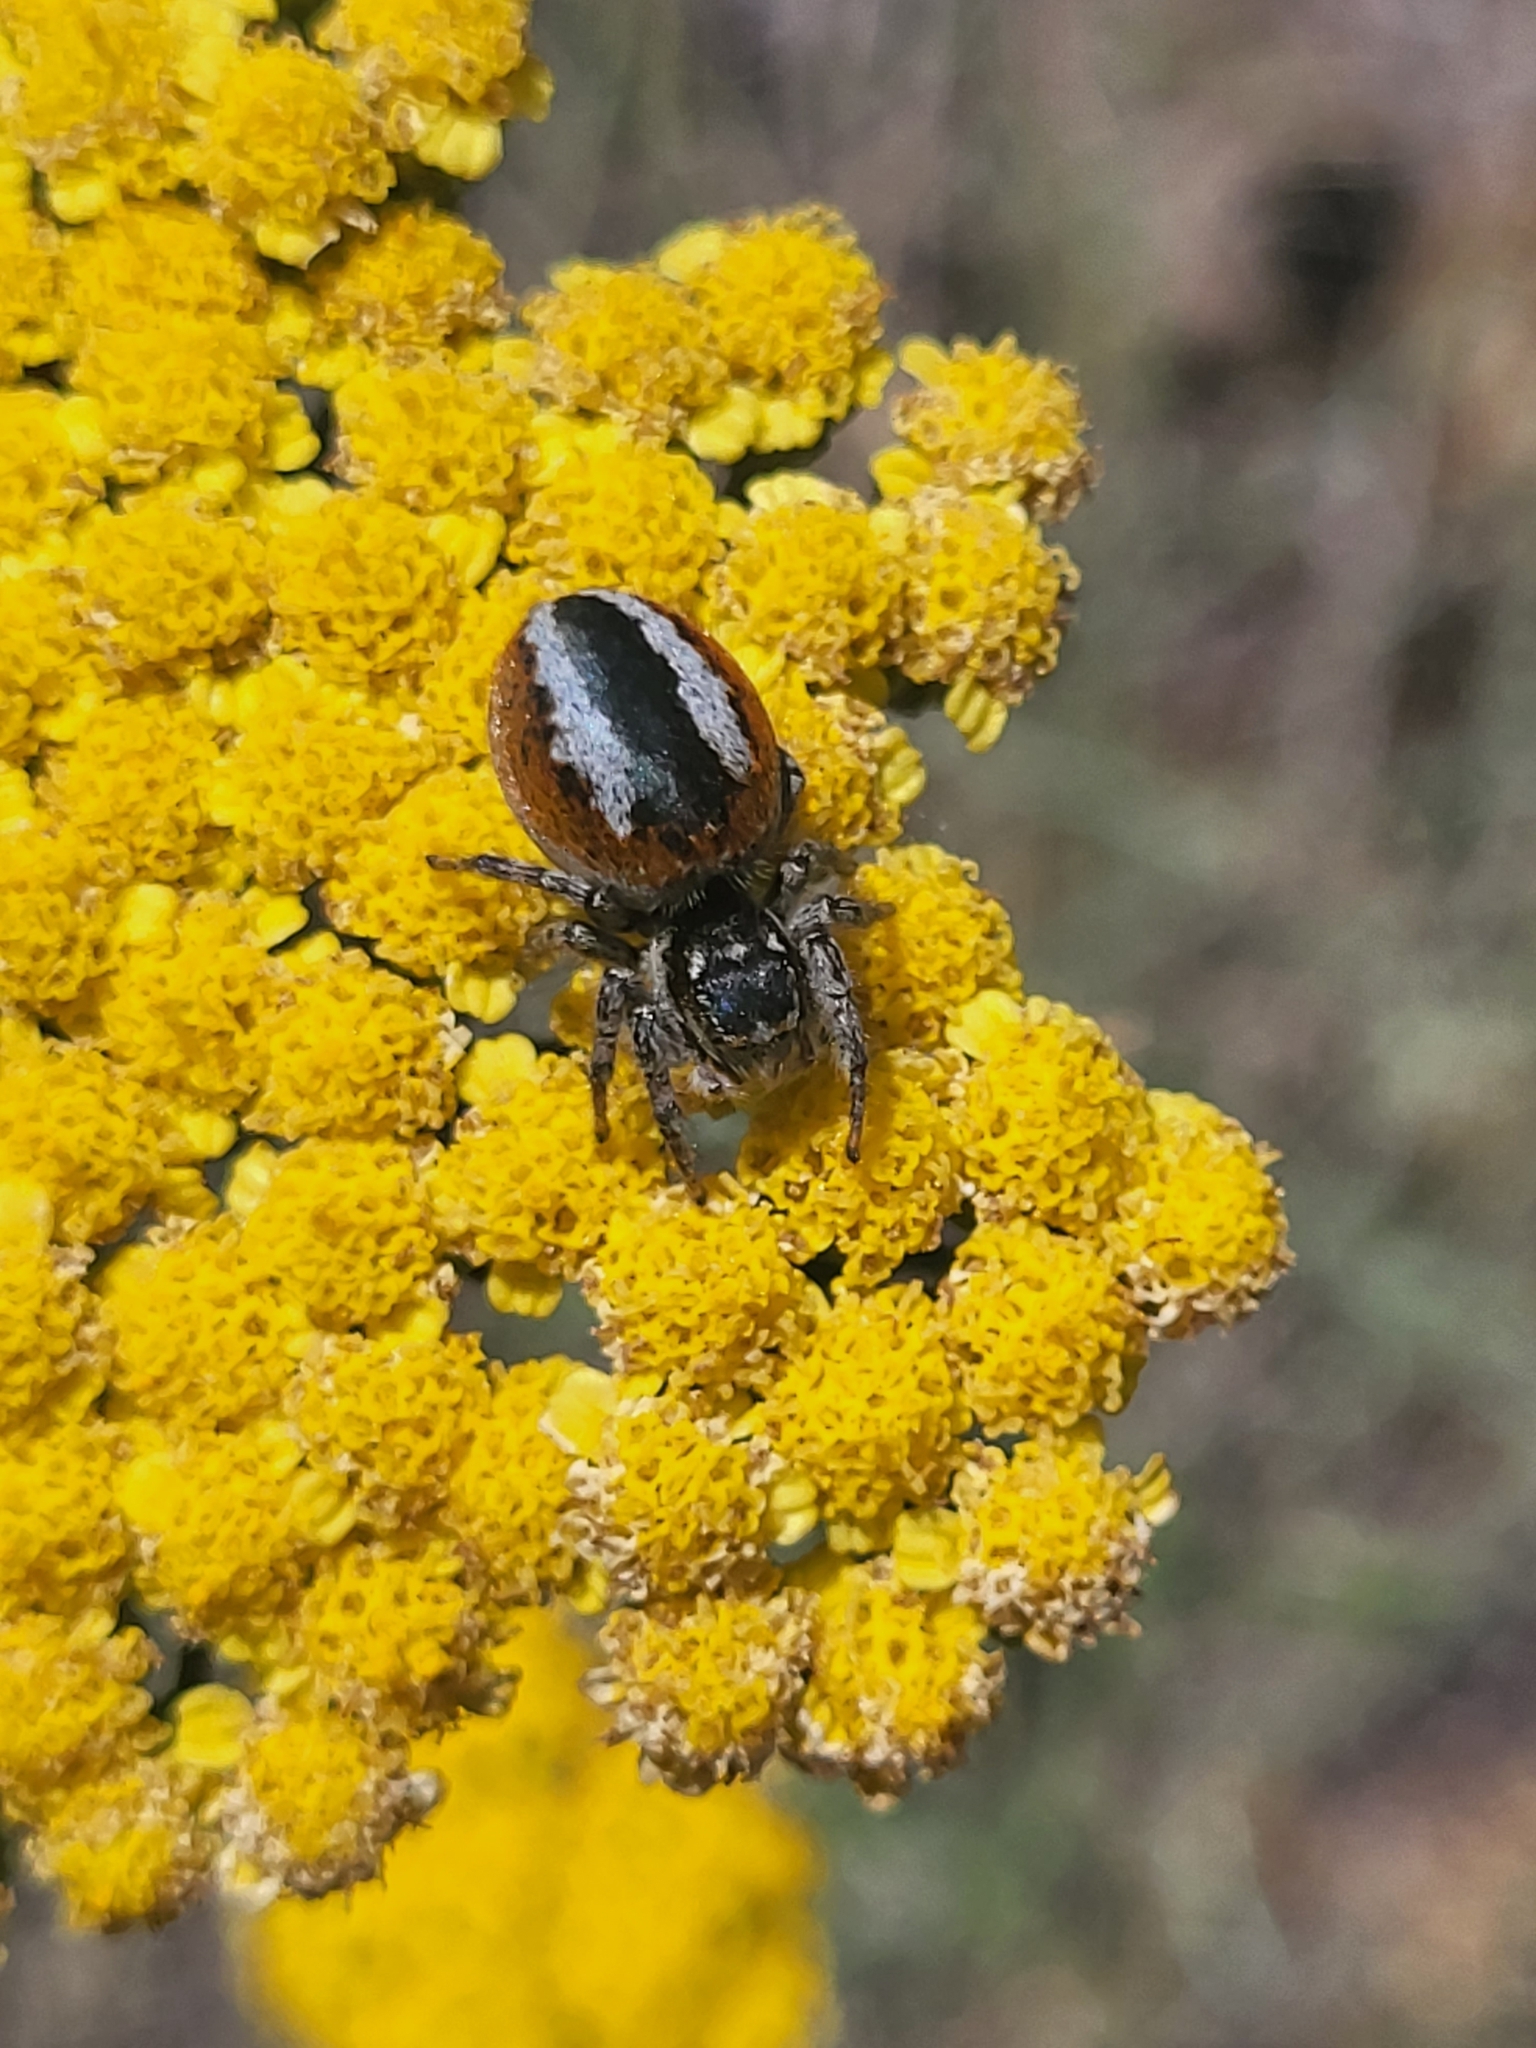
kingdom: Animalia
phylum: Arthropoda
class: Arachnida
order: Araneae
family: Salticidae
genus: Philaeus
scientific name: Philaeus chrysops
